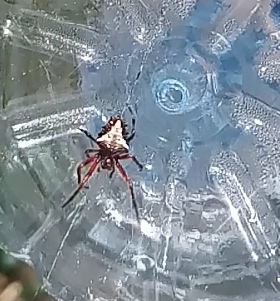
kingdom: Animalia
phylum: Arthropoda
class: Arachnida
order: Araneae
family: Araneidae
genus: Verrucosa
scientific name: Verrucosa meridionalis
